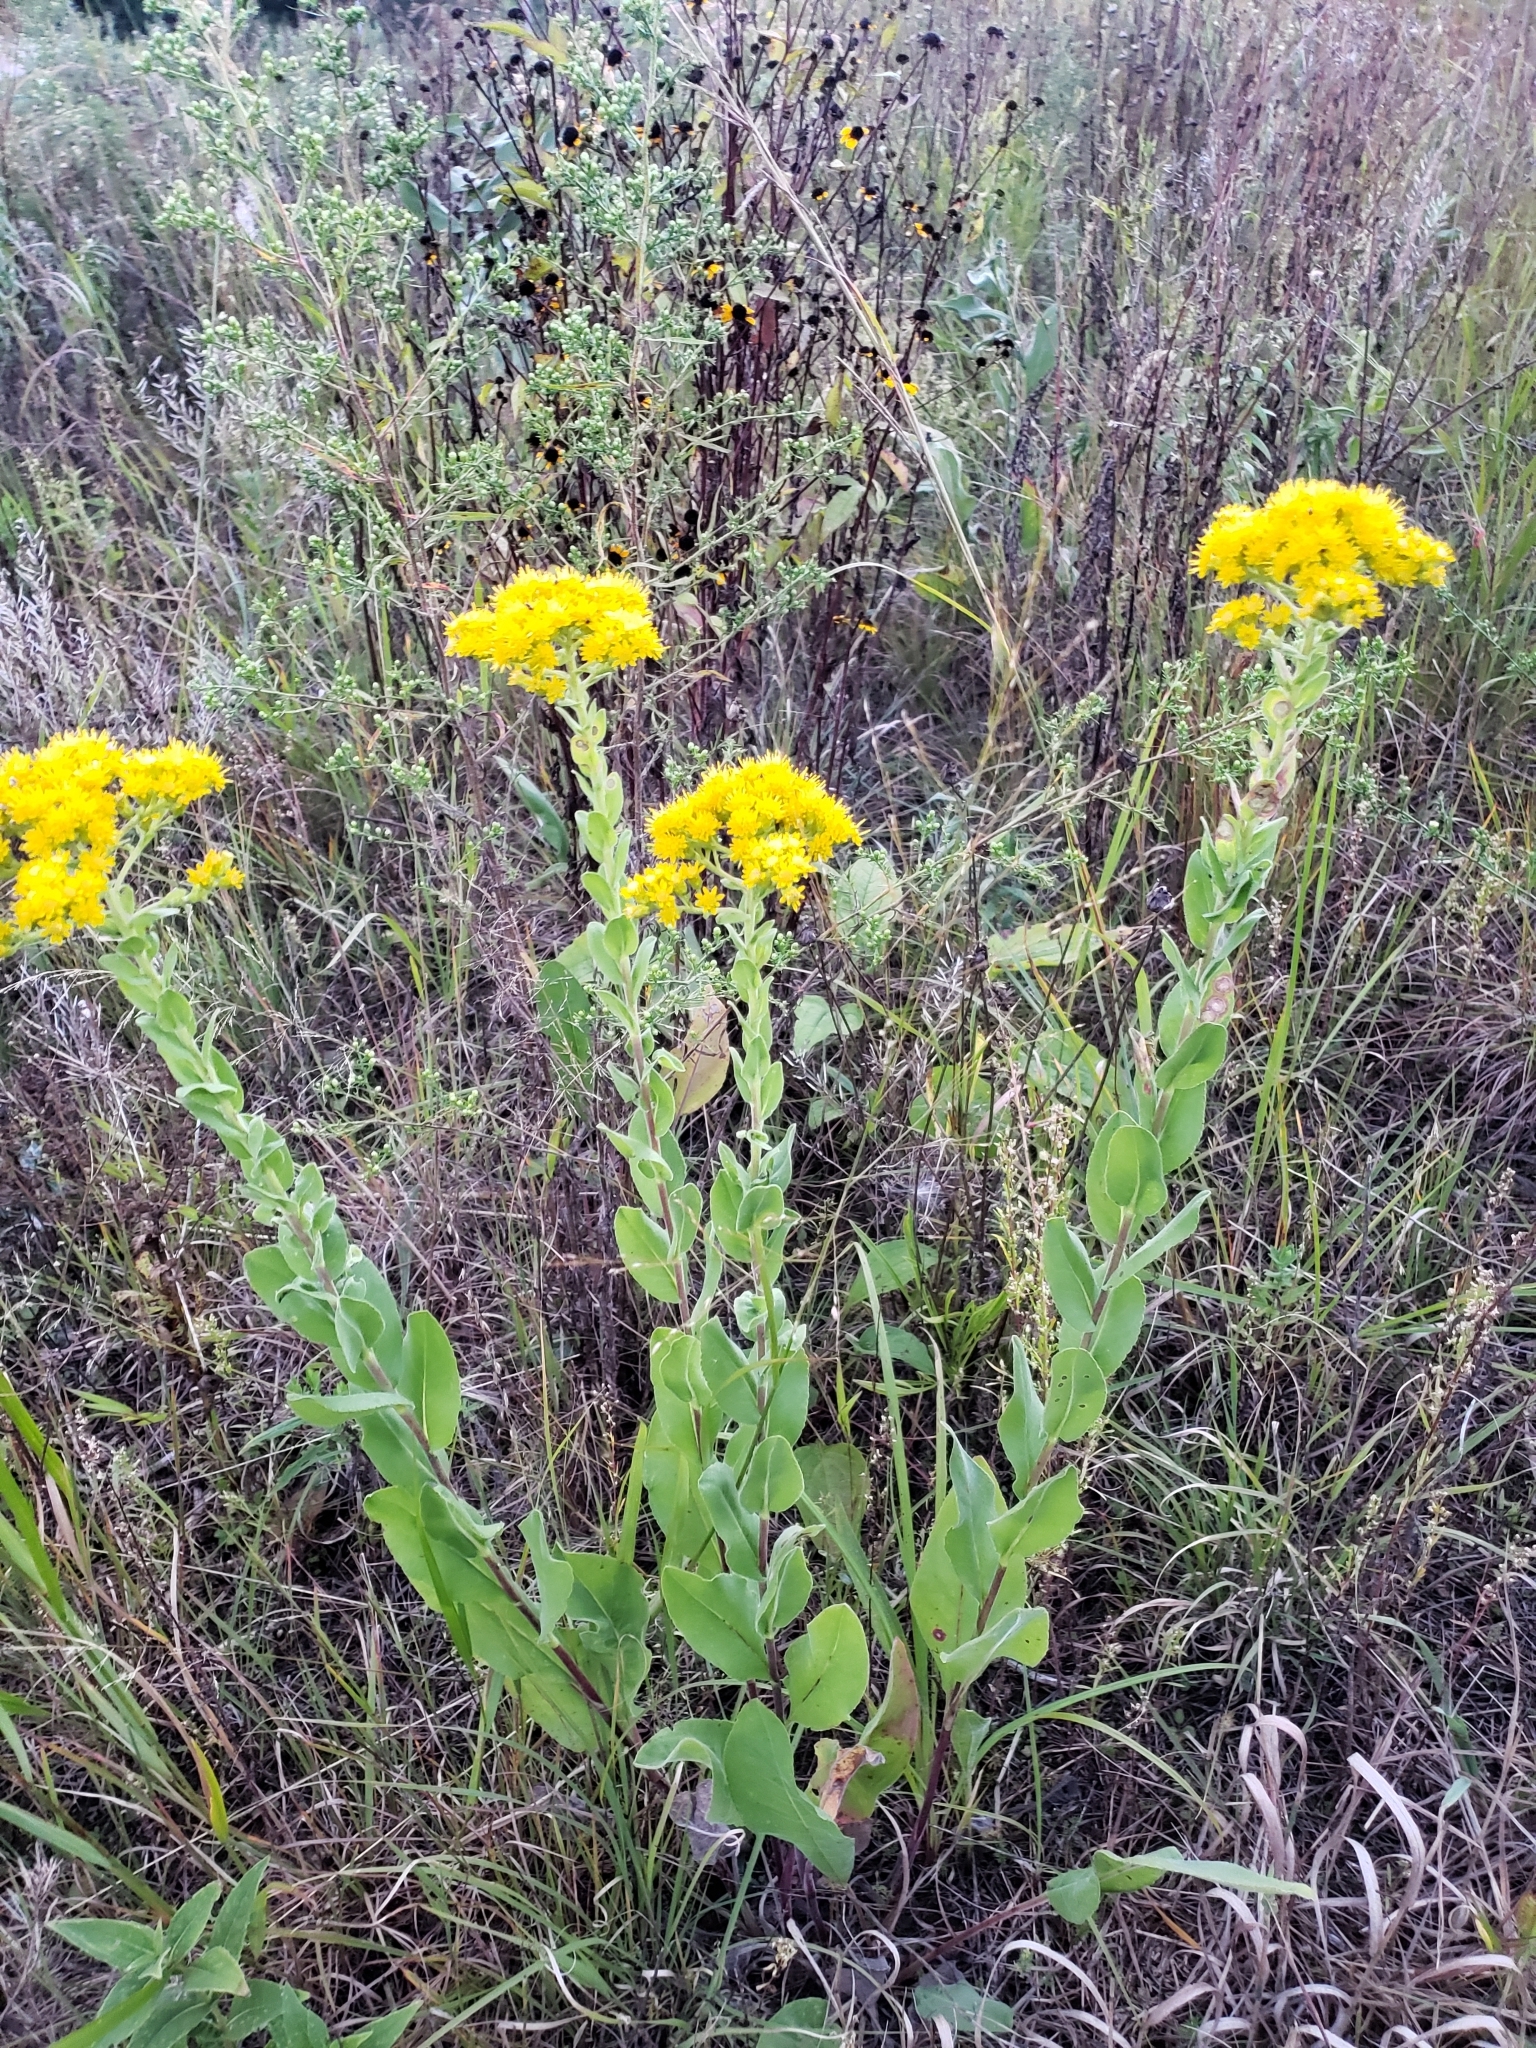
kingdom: Plantae
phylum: Tracheophyta
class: Magnoliopsida
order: Asterales
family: Asteraceae
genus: Solidago
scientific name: Solidago rigida
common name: Rigid goldenrod
